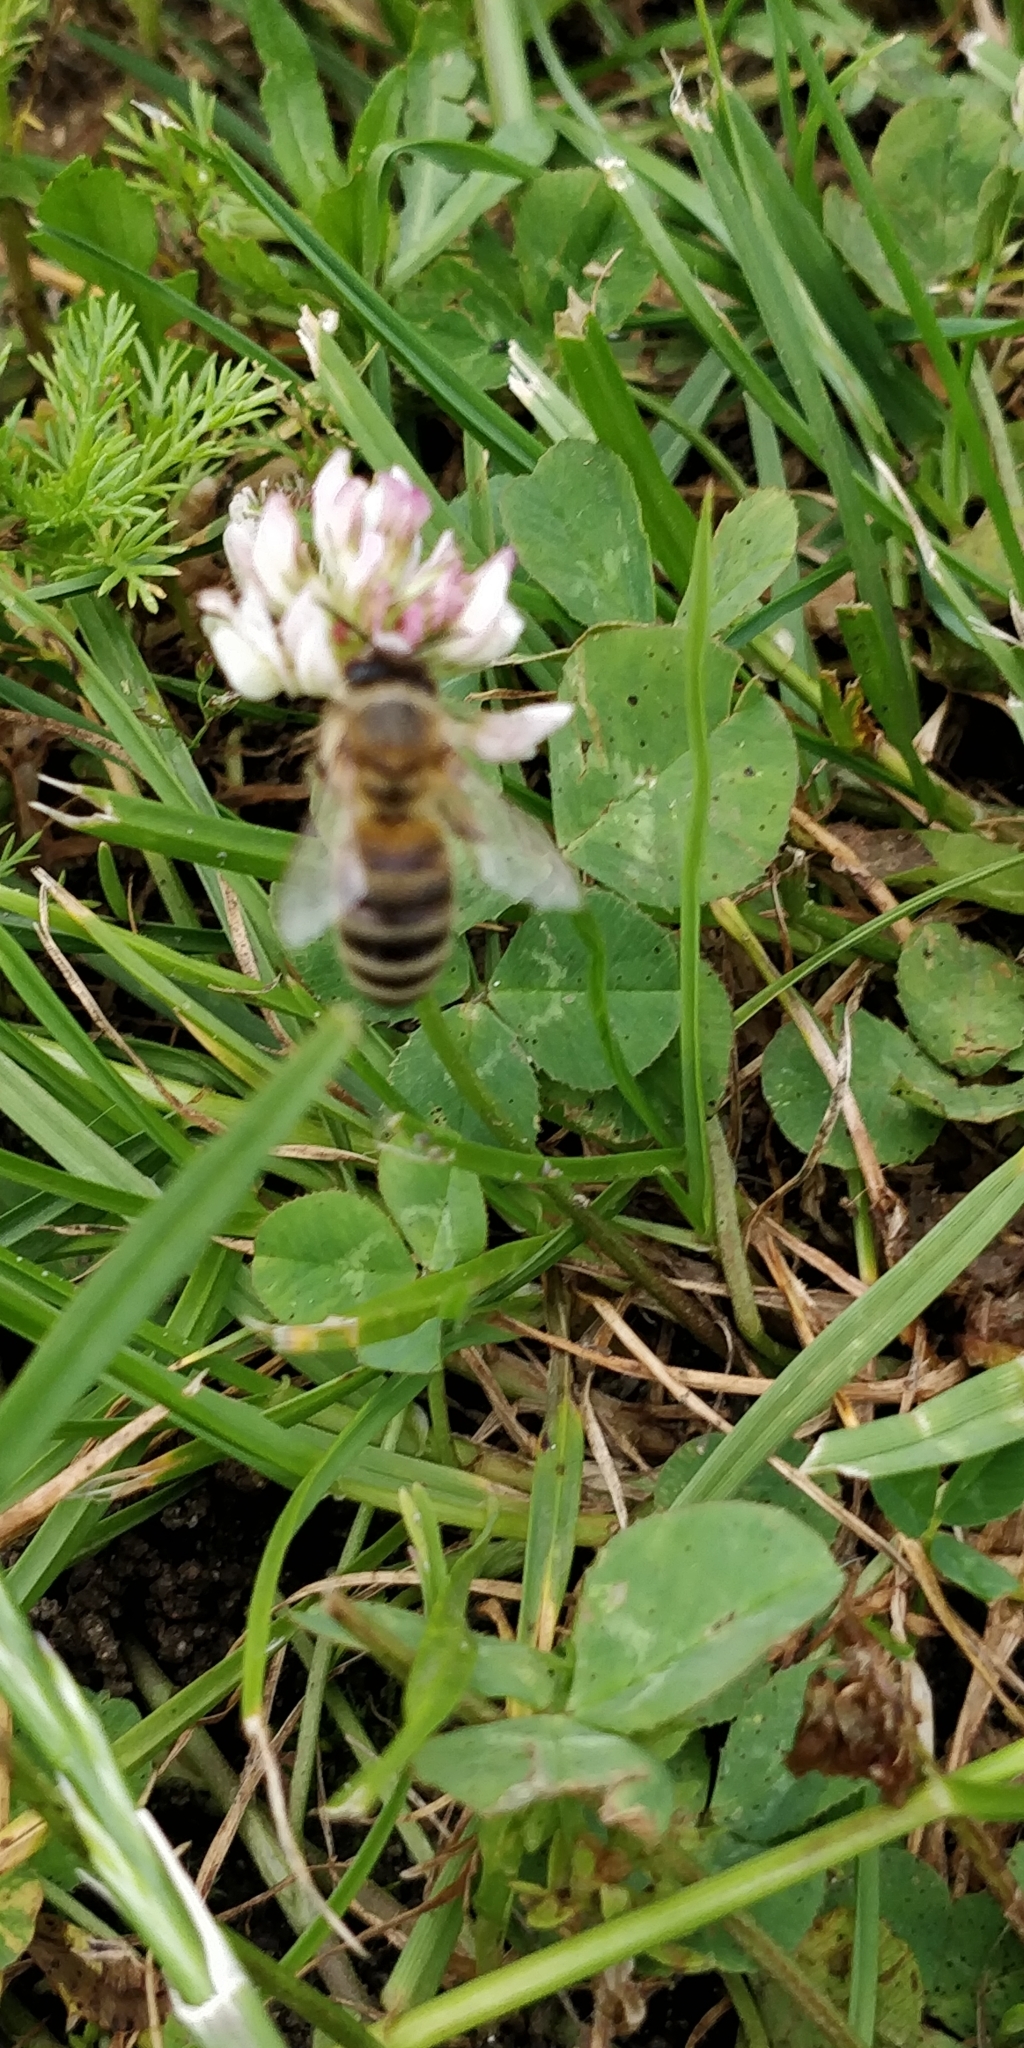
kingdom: Animalia
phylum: Arthropoda
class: Insecta
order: Hymenoptera
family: Apidae
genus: Apis
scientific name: Apis mellifera
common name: Honey bee
